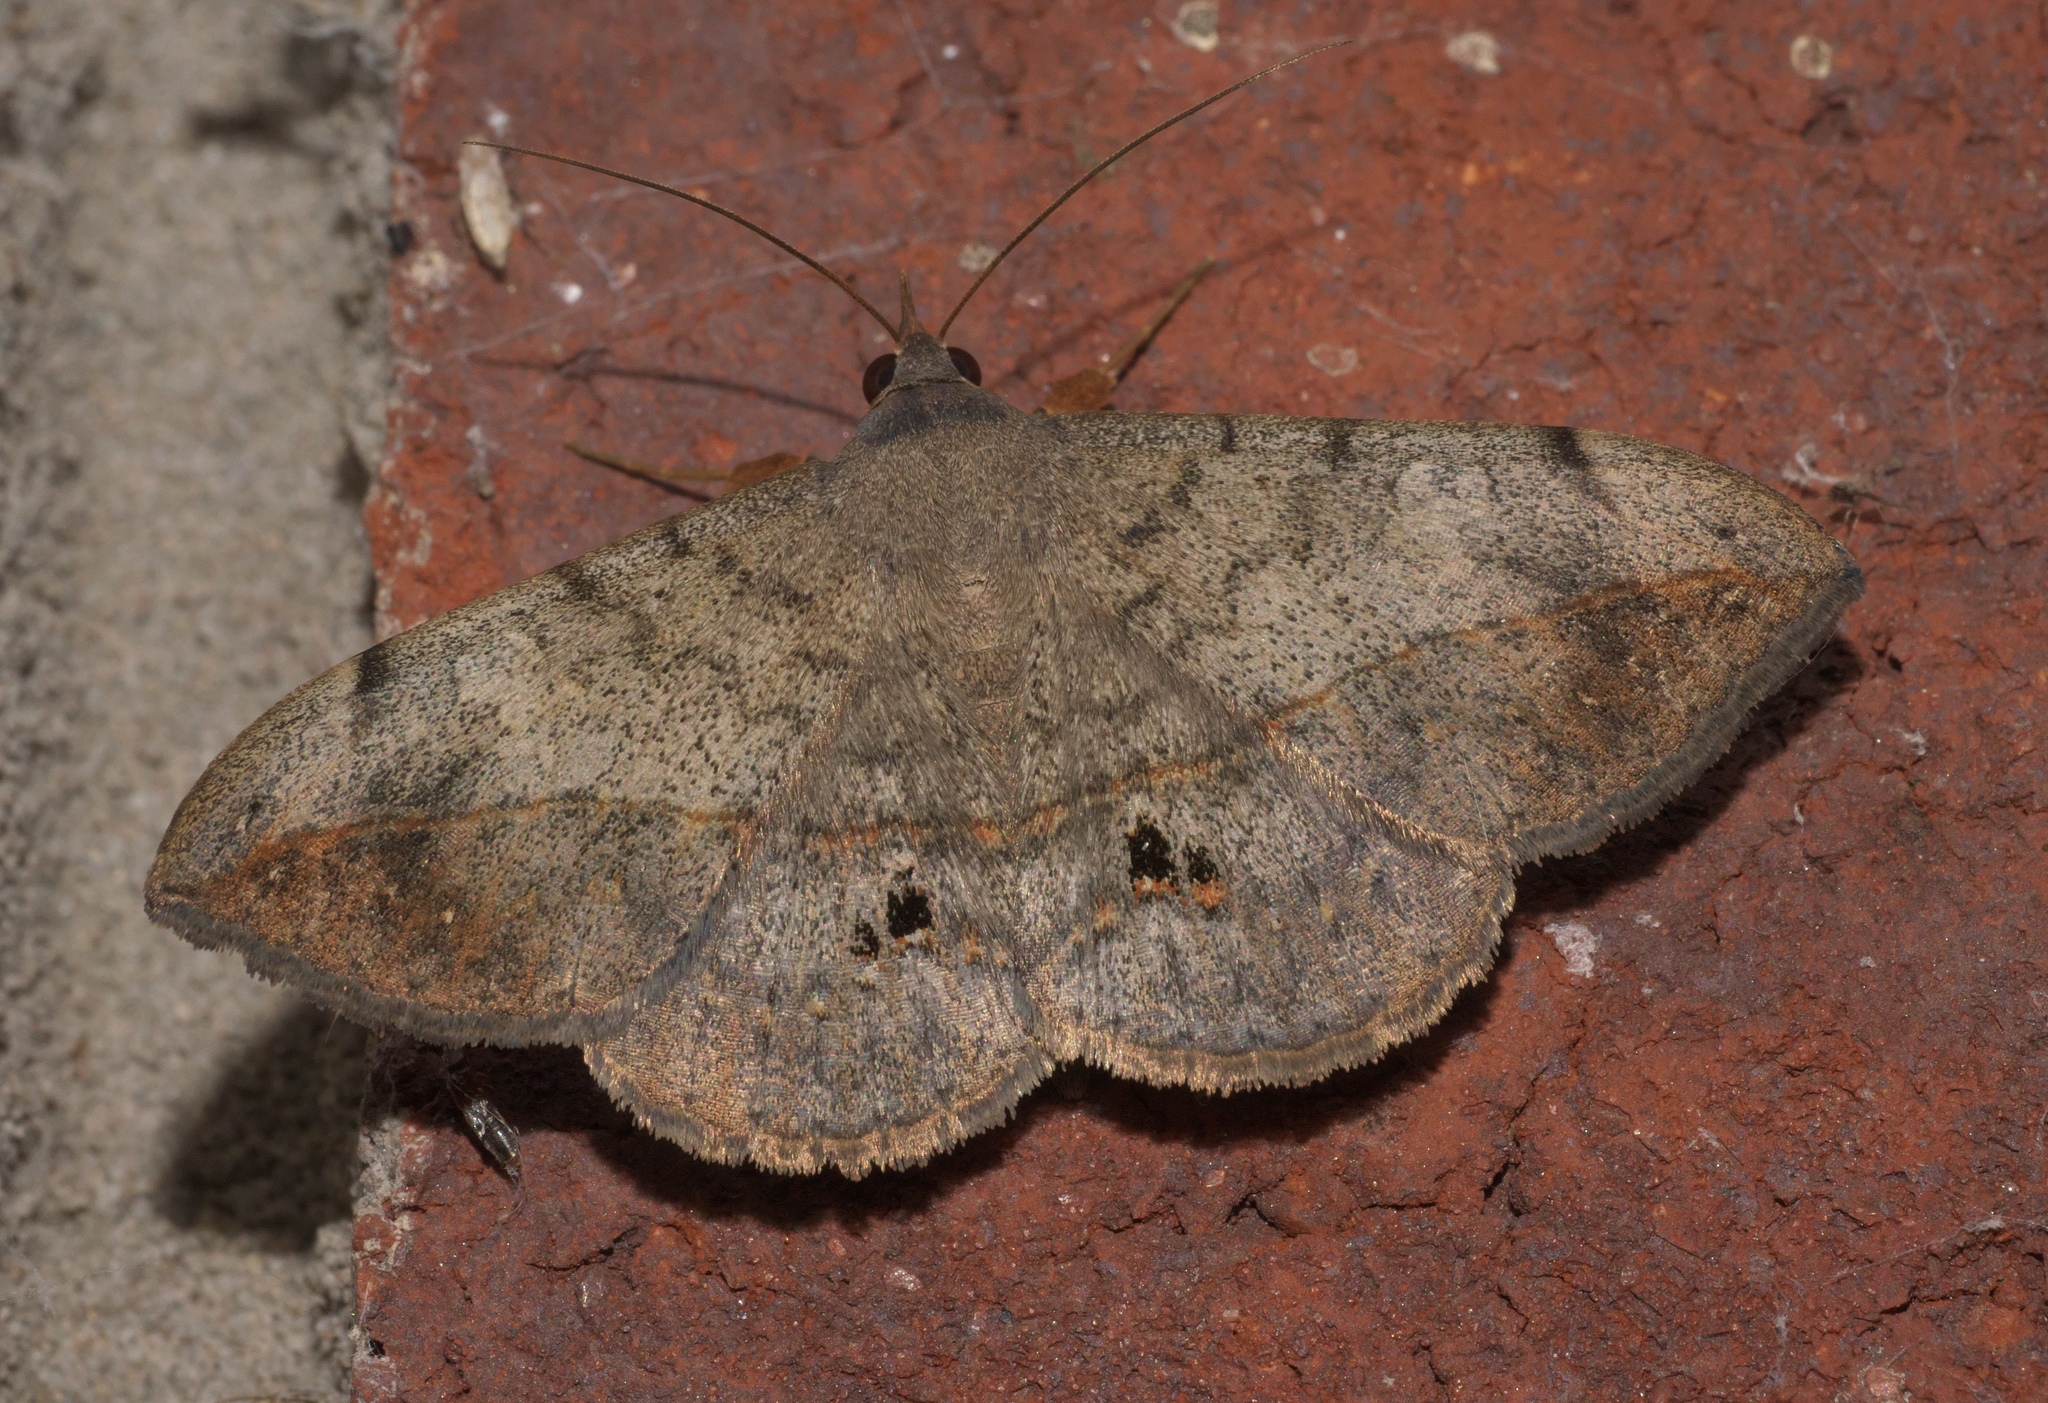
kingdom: Animalia
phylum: Arthropoda
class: Insecta
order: Lepidoptera
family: Erebidae
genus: Anticarsia
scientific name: Anticarsia gemmatalis
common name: Cutworm moth
